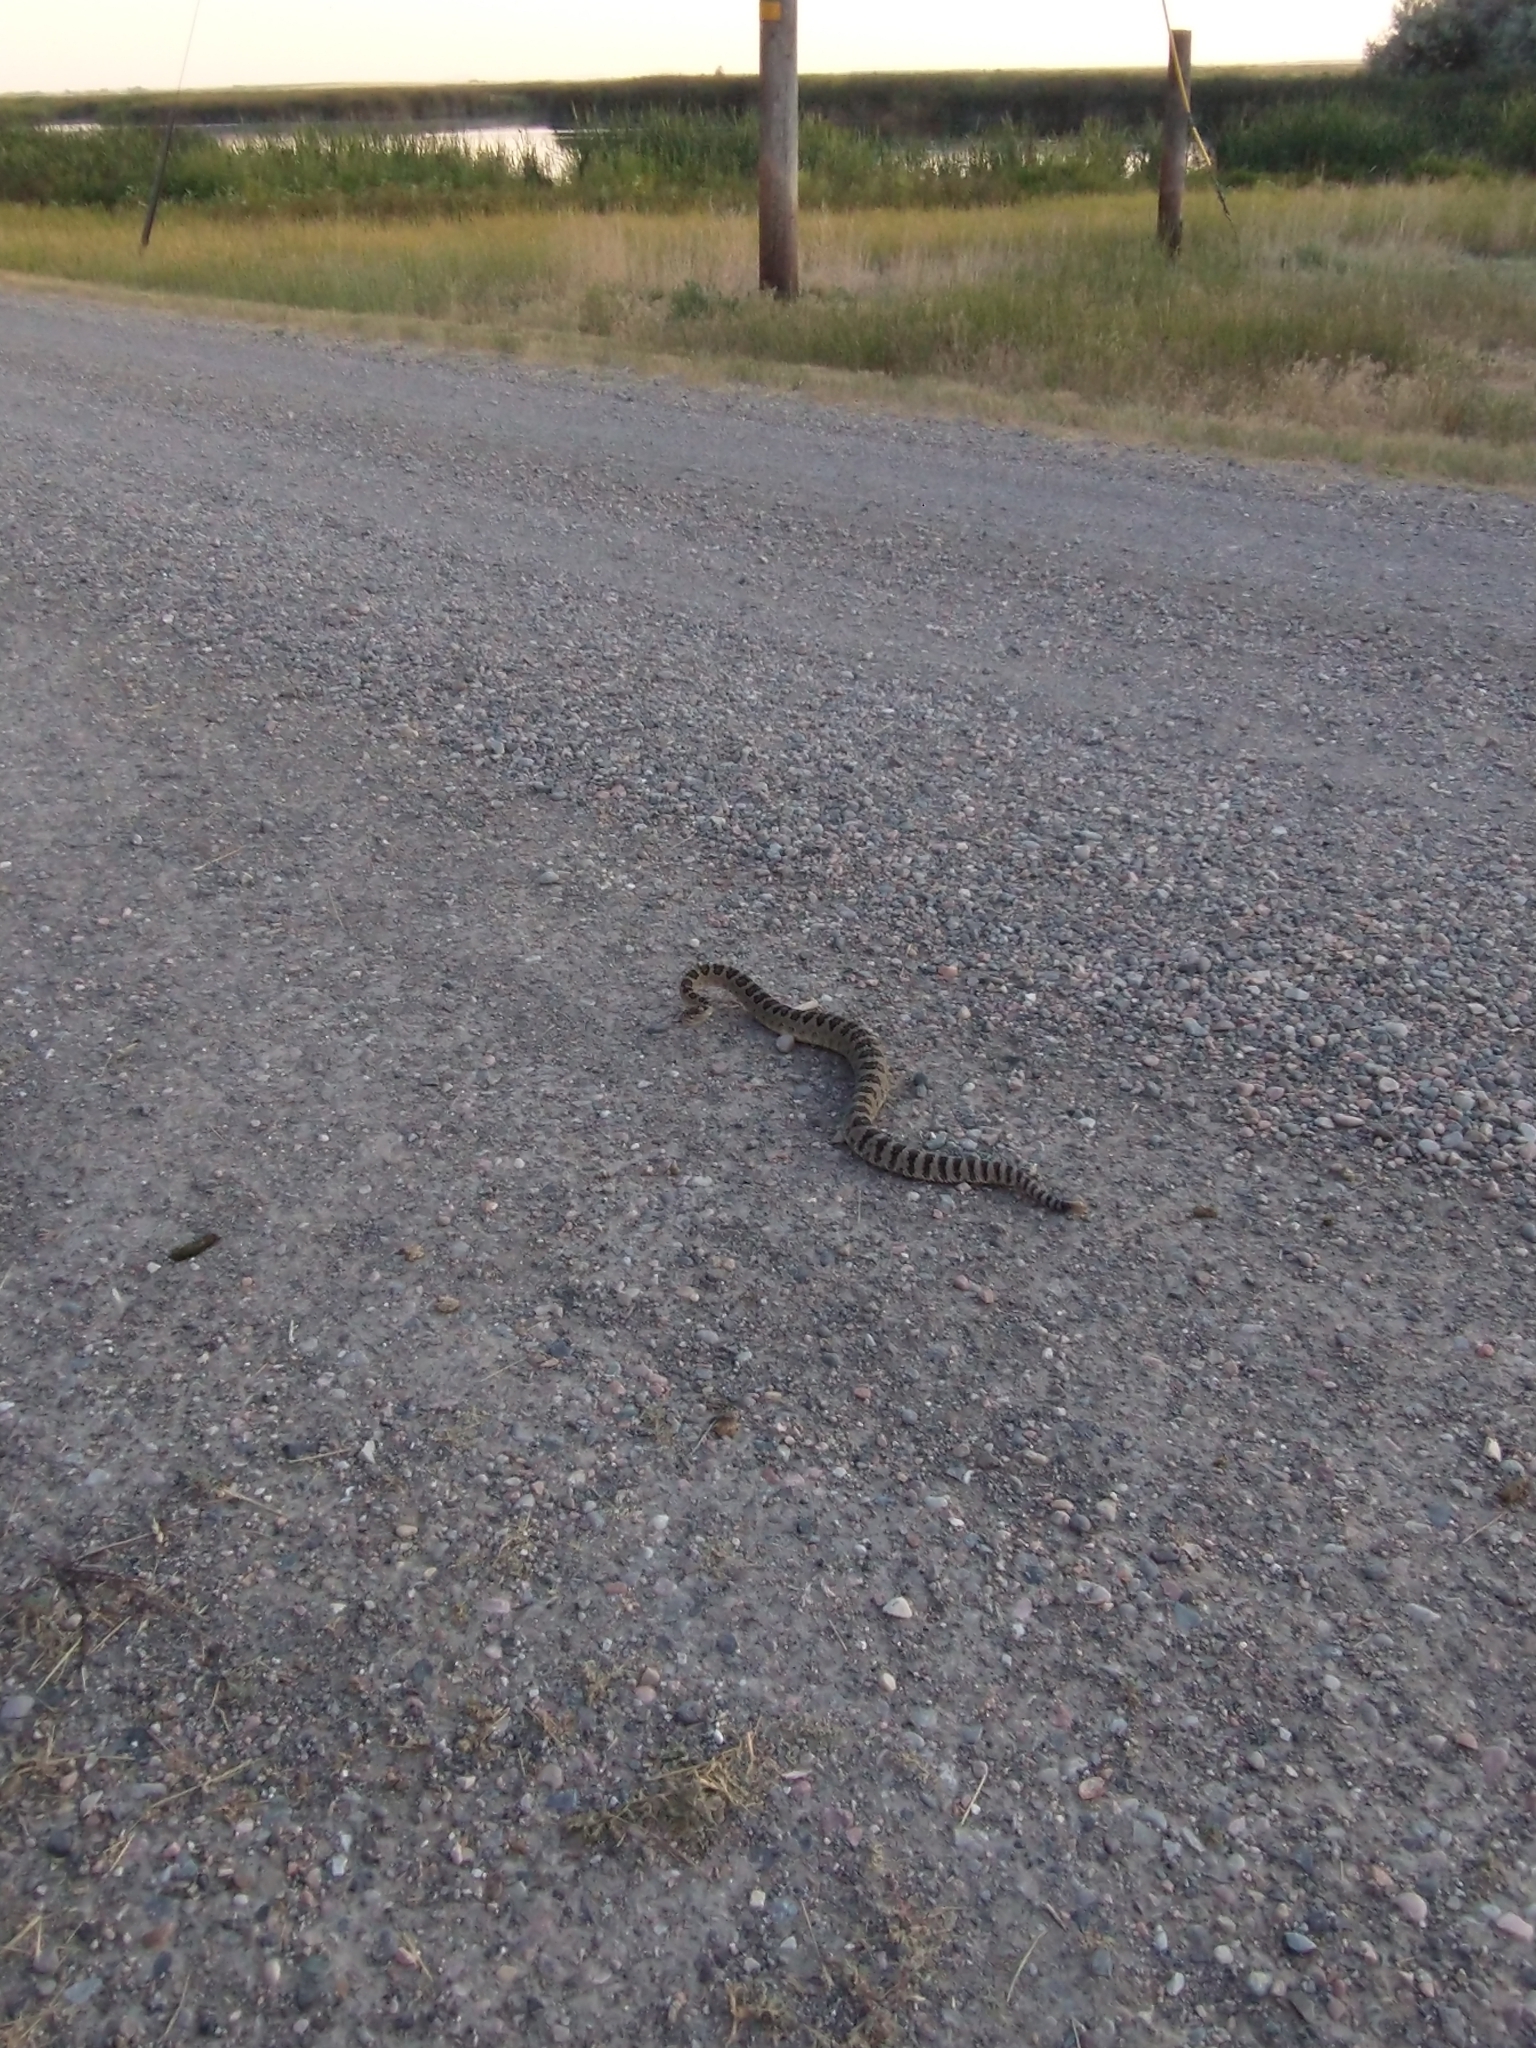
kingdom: Animalia
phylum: Chordata
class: Squamata
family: Viperidae
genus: Crotalus
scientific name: Crotalus oreganus
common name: Abyssus
